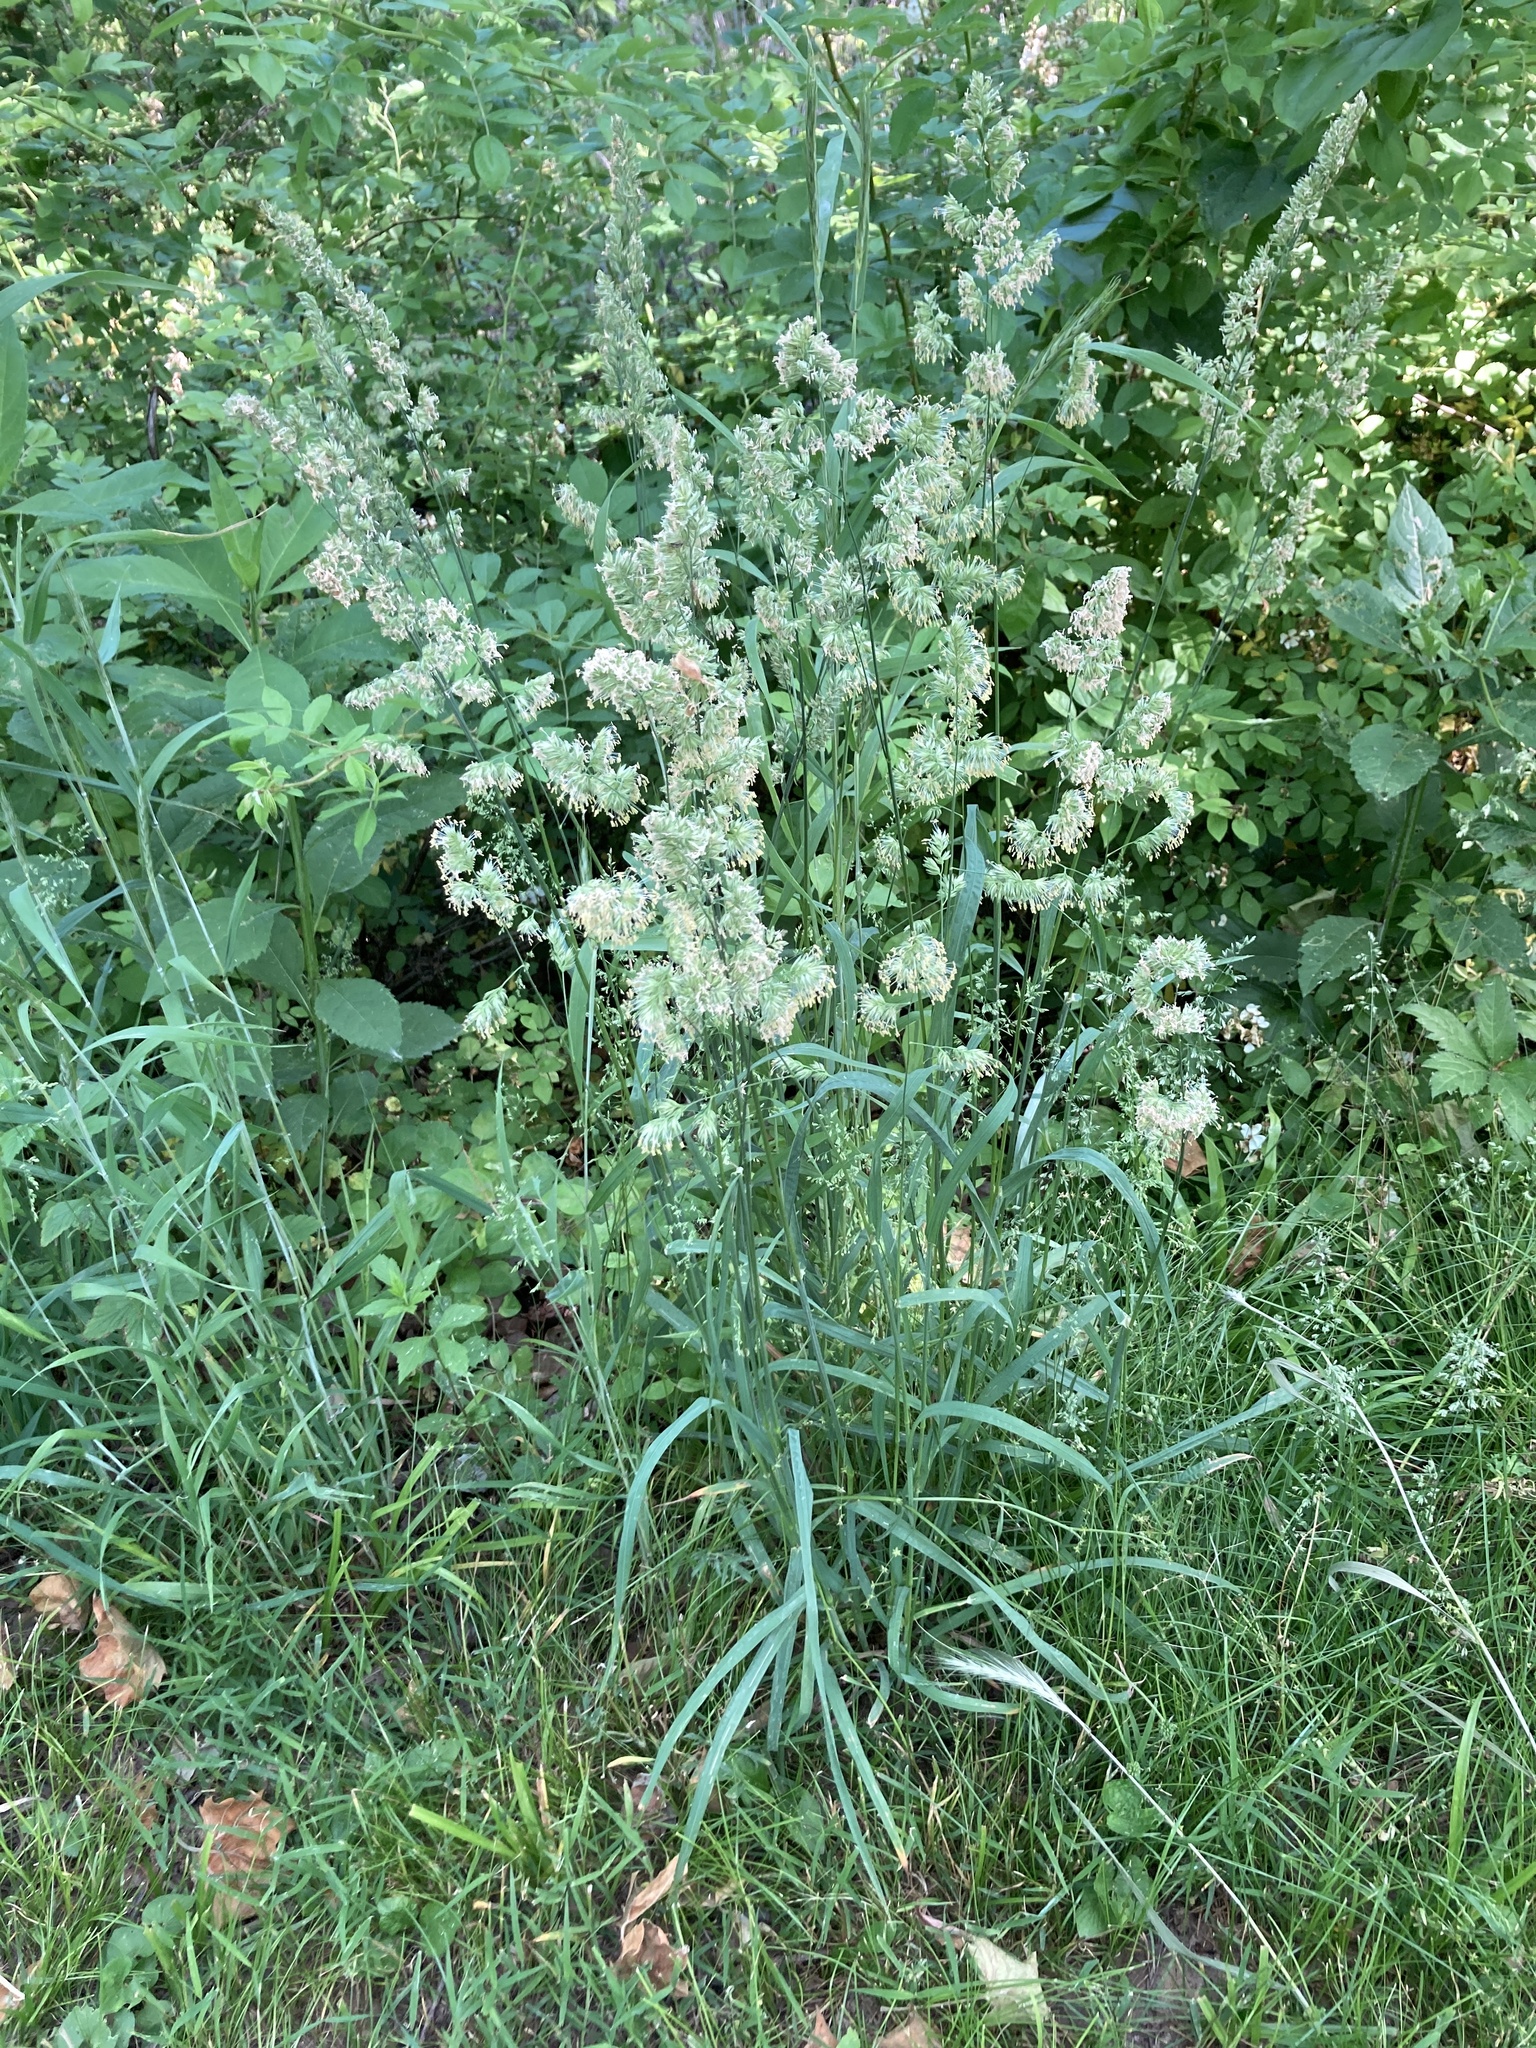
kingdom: Plantae
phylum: Tracheophyta
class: Liliopsida
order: Poales
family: Poaceae
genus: Dactylis
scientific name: Dactylis glomerata
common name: Orchardgrass
